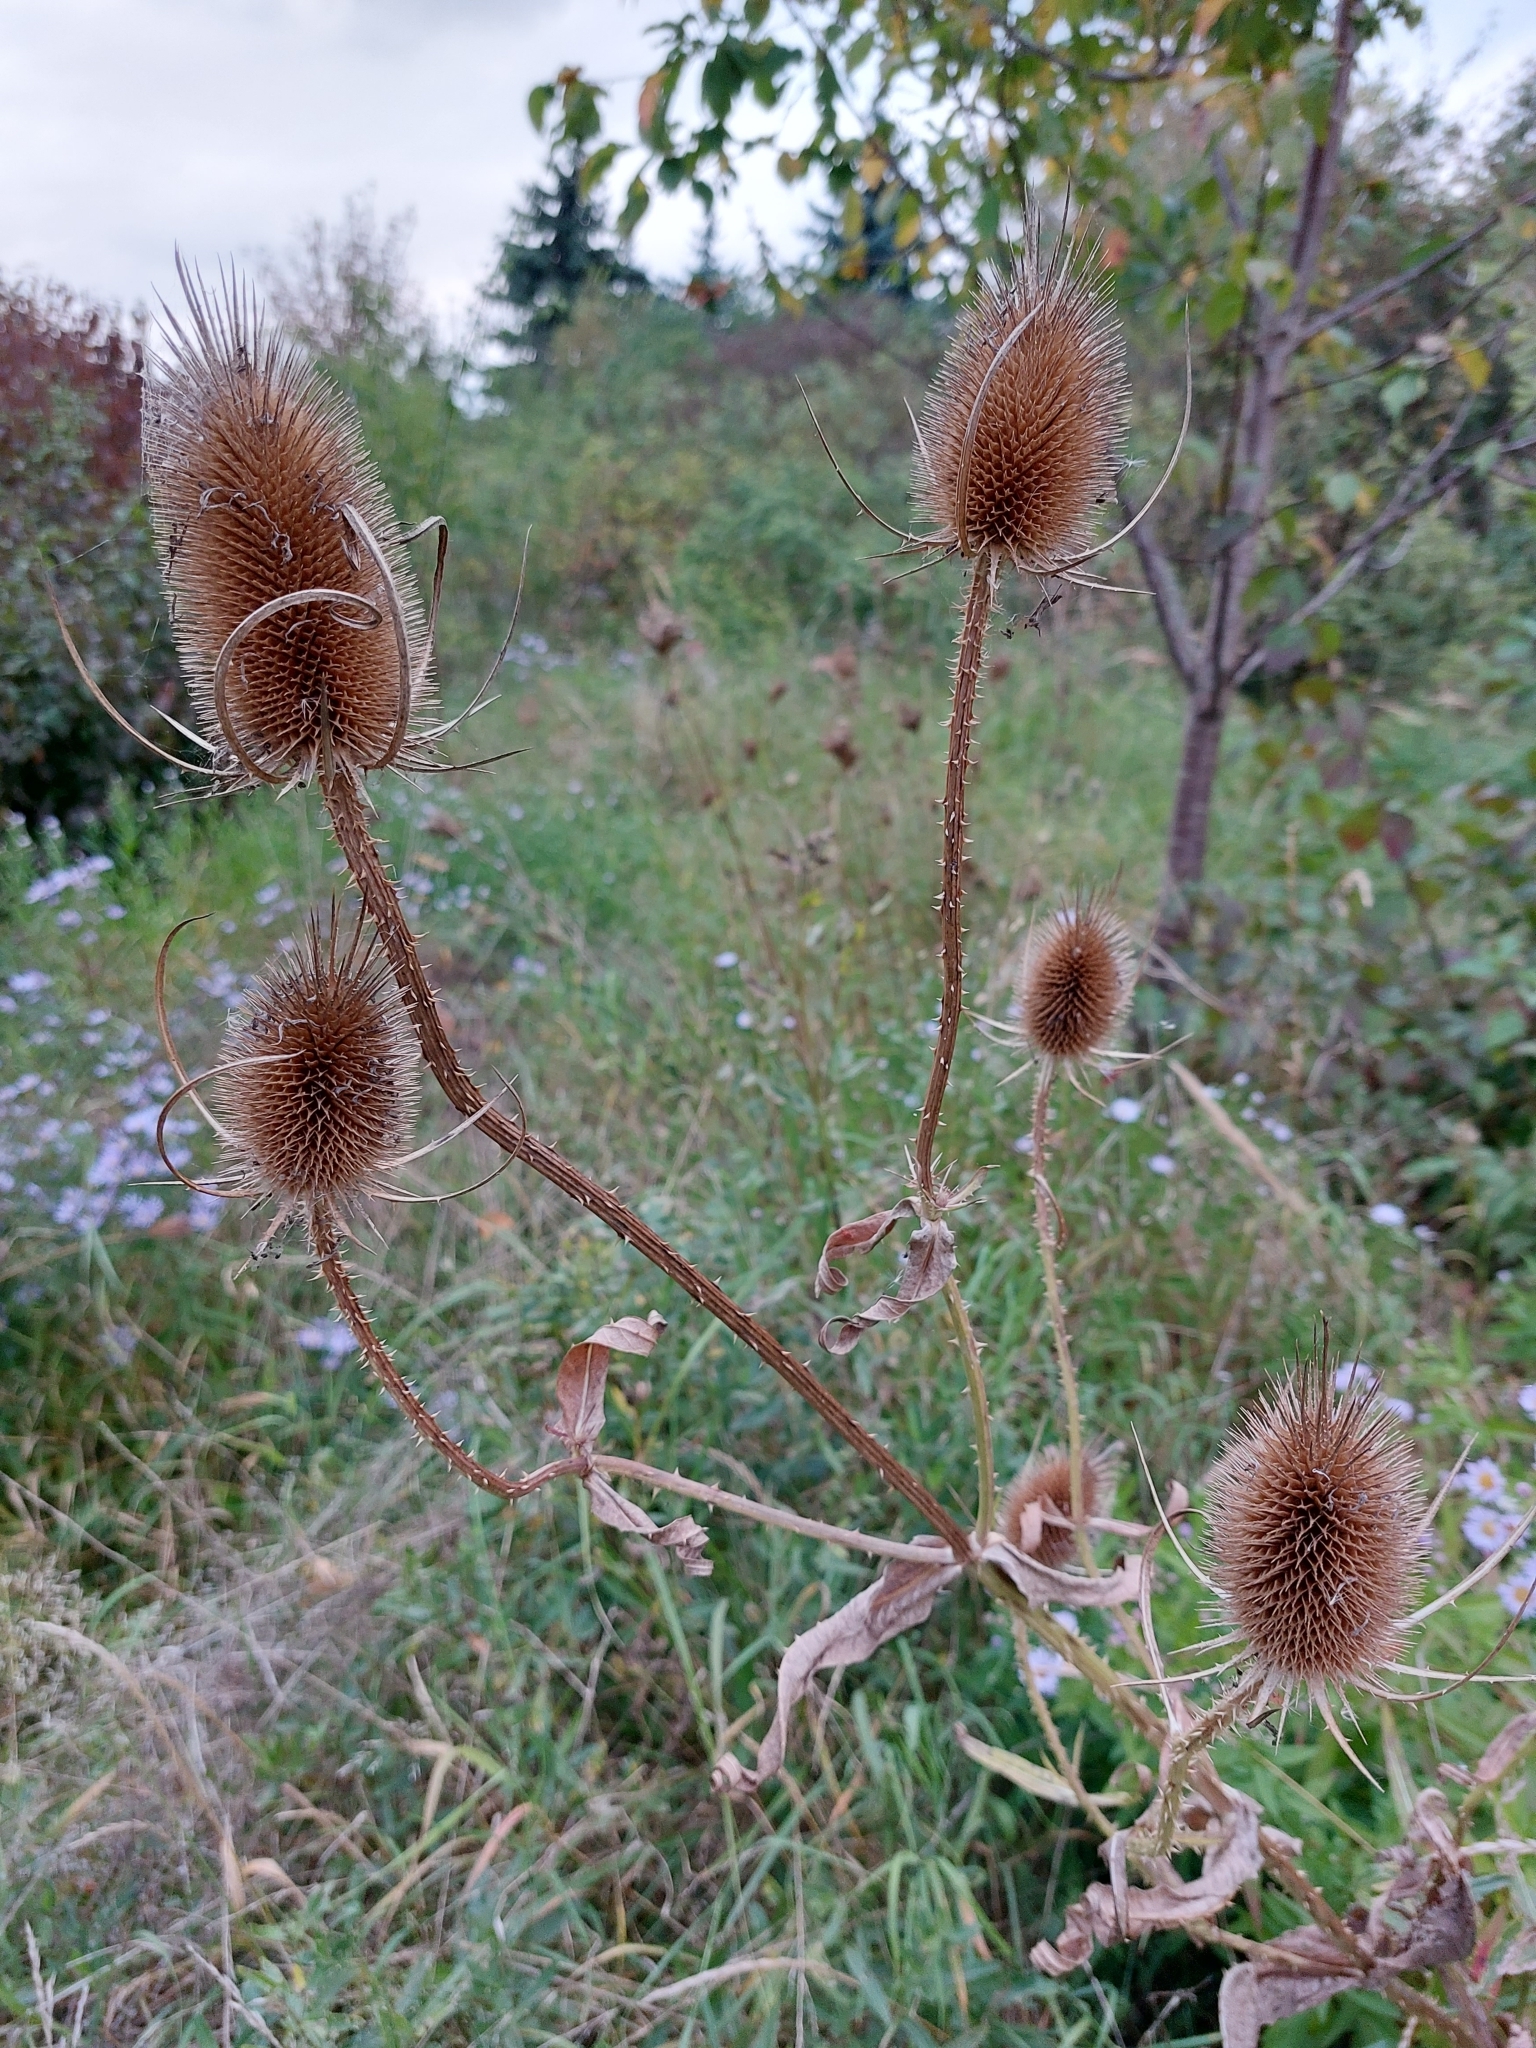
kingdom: Plantae
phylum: Tracheophyta
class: Magnoliopsida
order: Dipsacales
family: Caprifoliaceae
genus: Dipsacus
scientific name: Dipsacus fullonum
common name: Teasel
